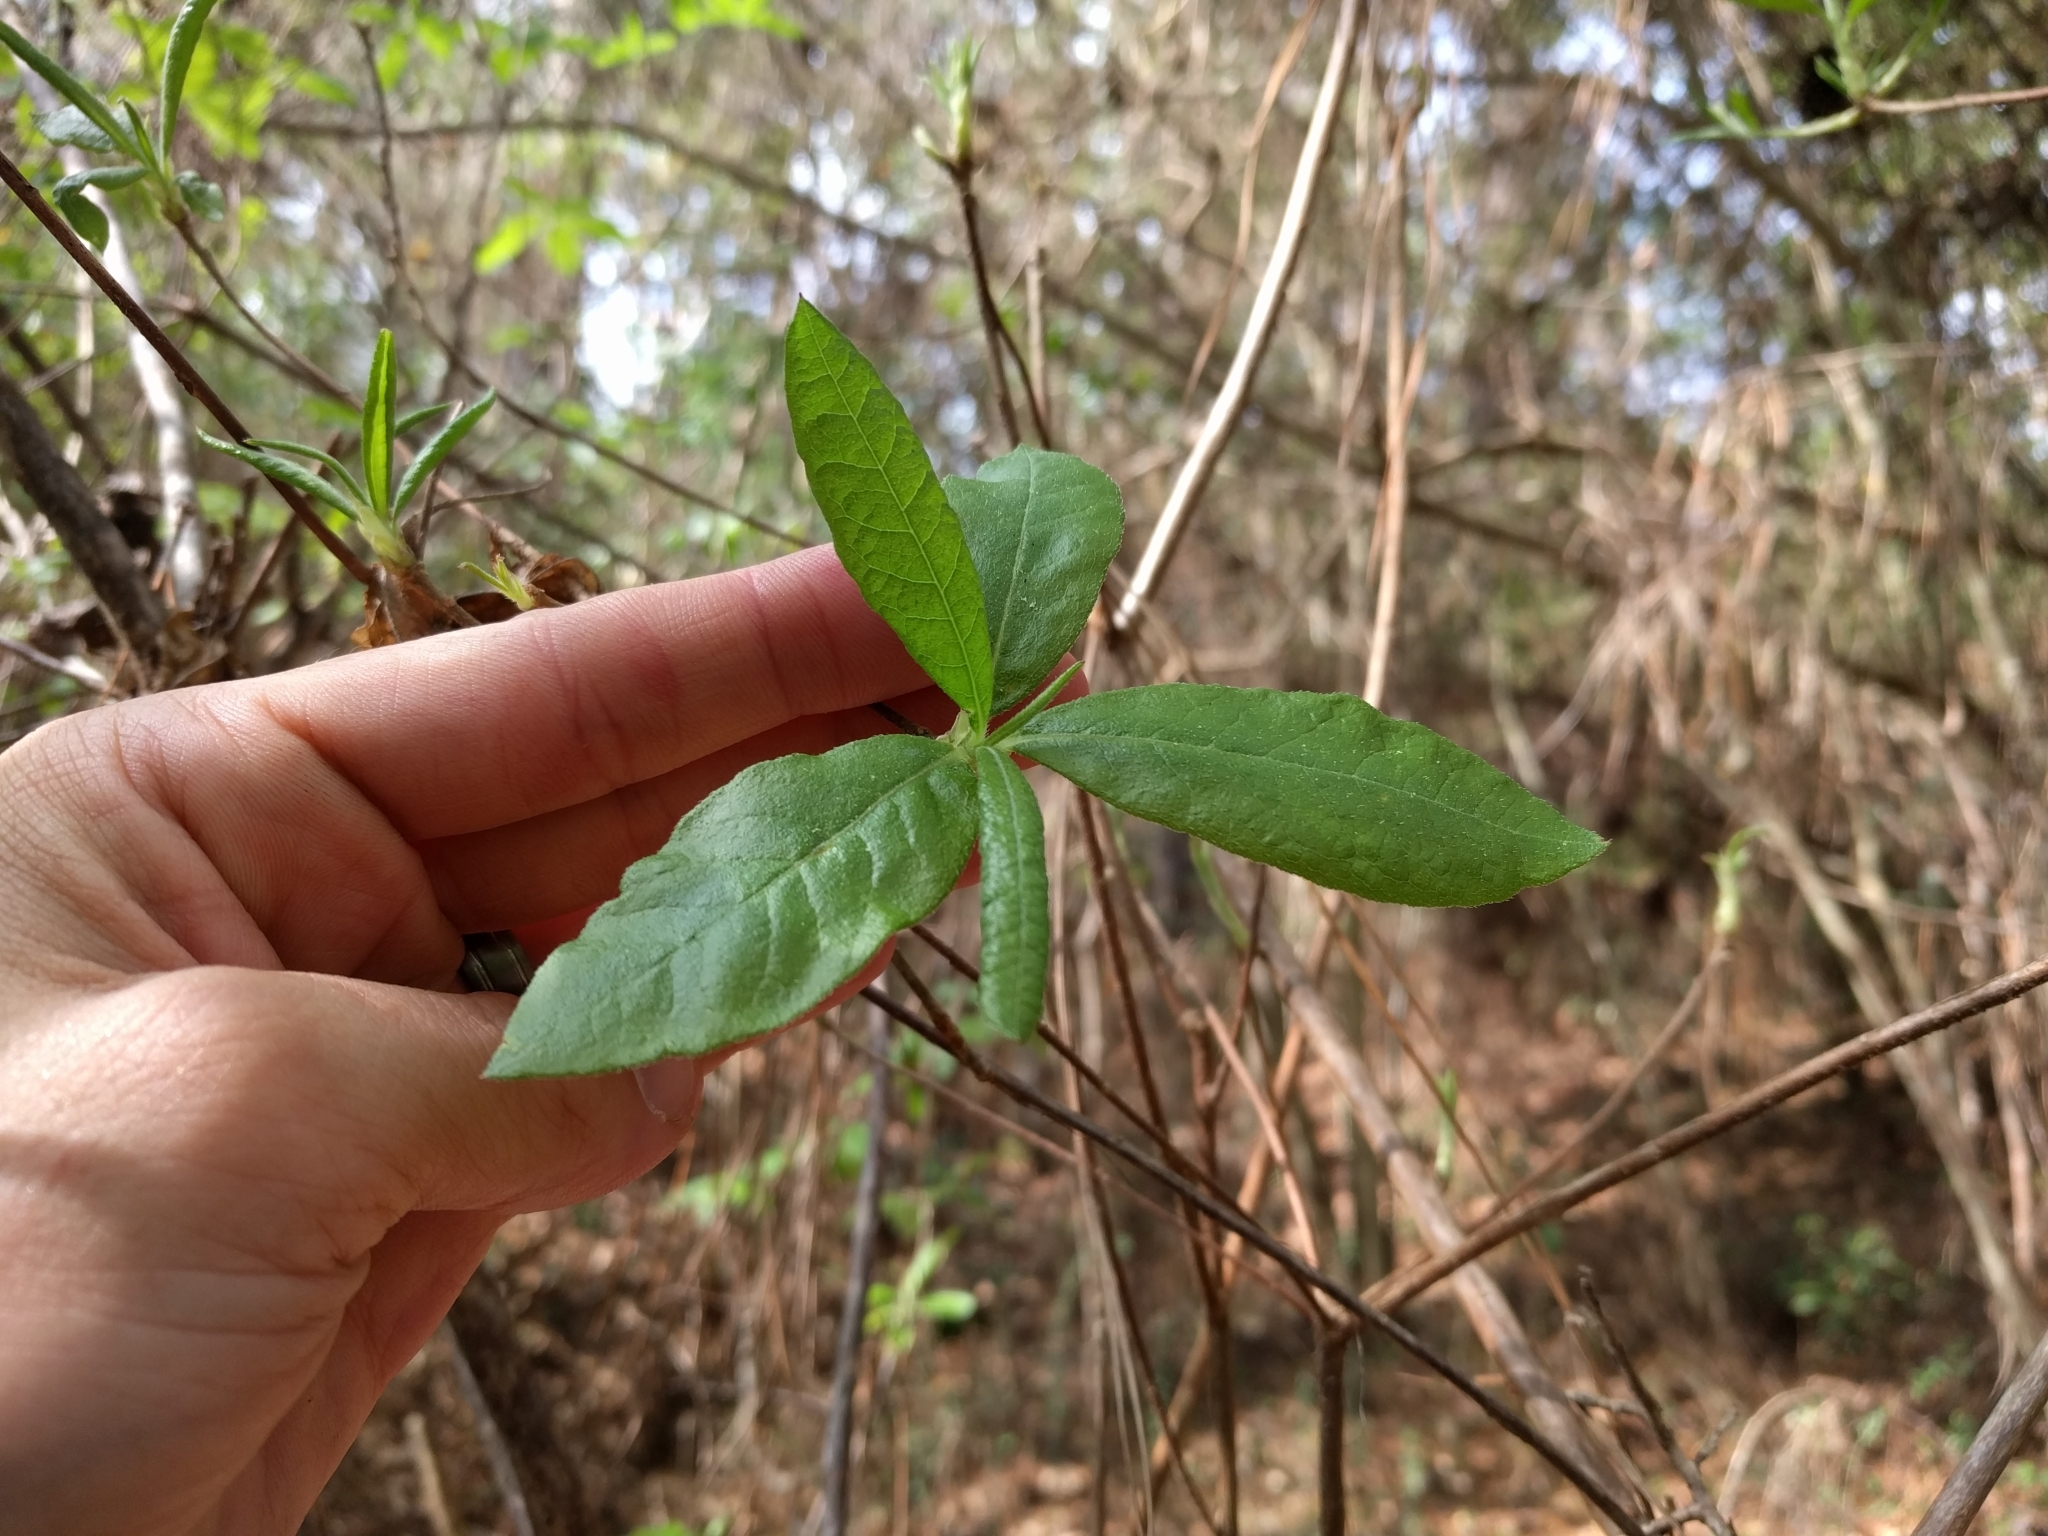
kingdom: Plantae
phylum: Tracheophyta
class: Magnoliopsida
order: Ericales
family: Ericaceae
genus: Rhododendron
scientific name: Rhododendron canescens
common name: Mountain azalea
